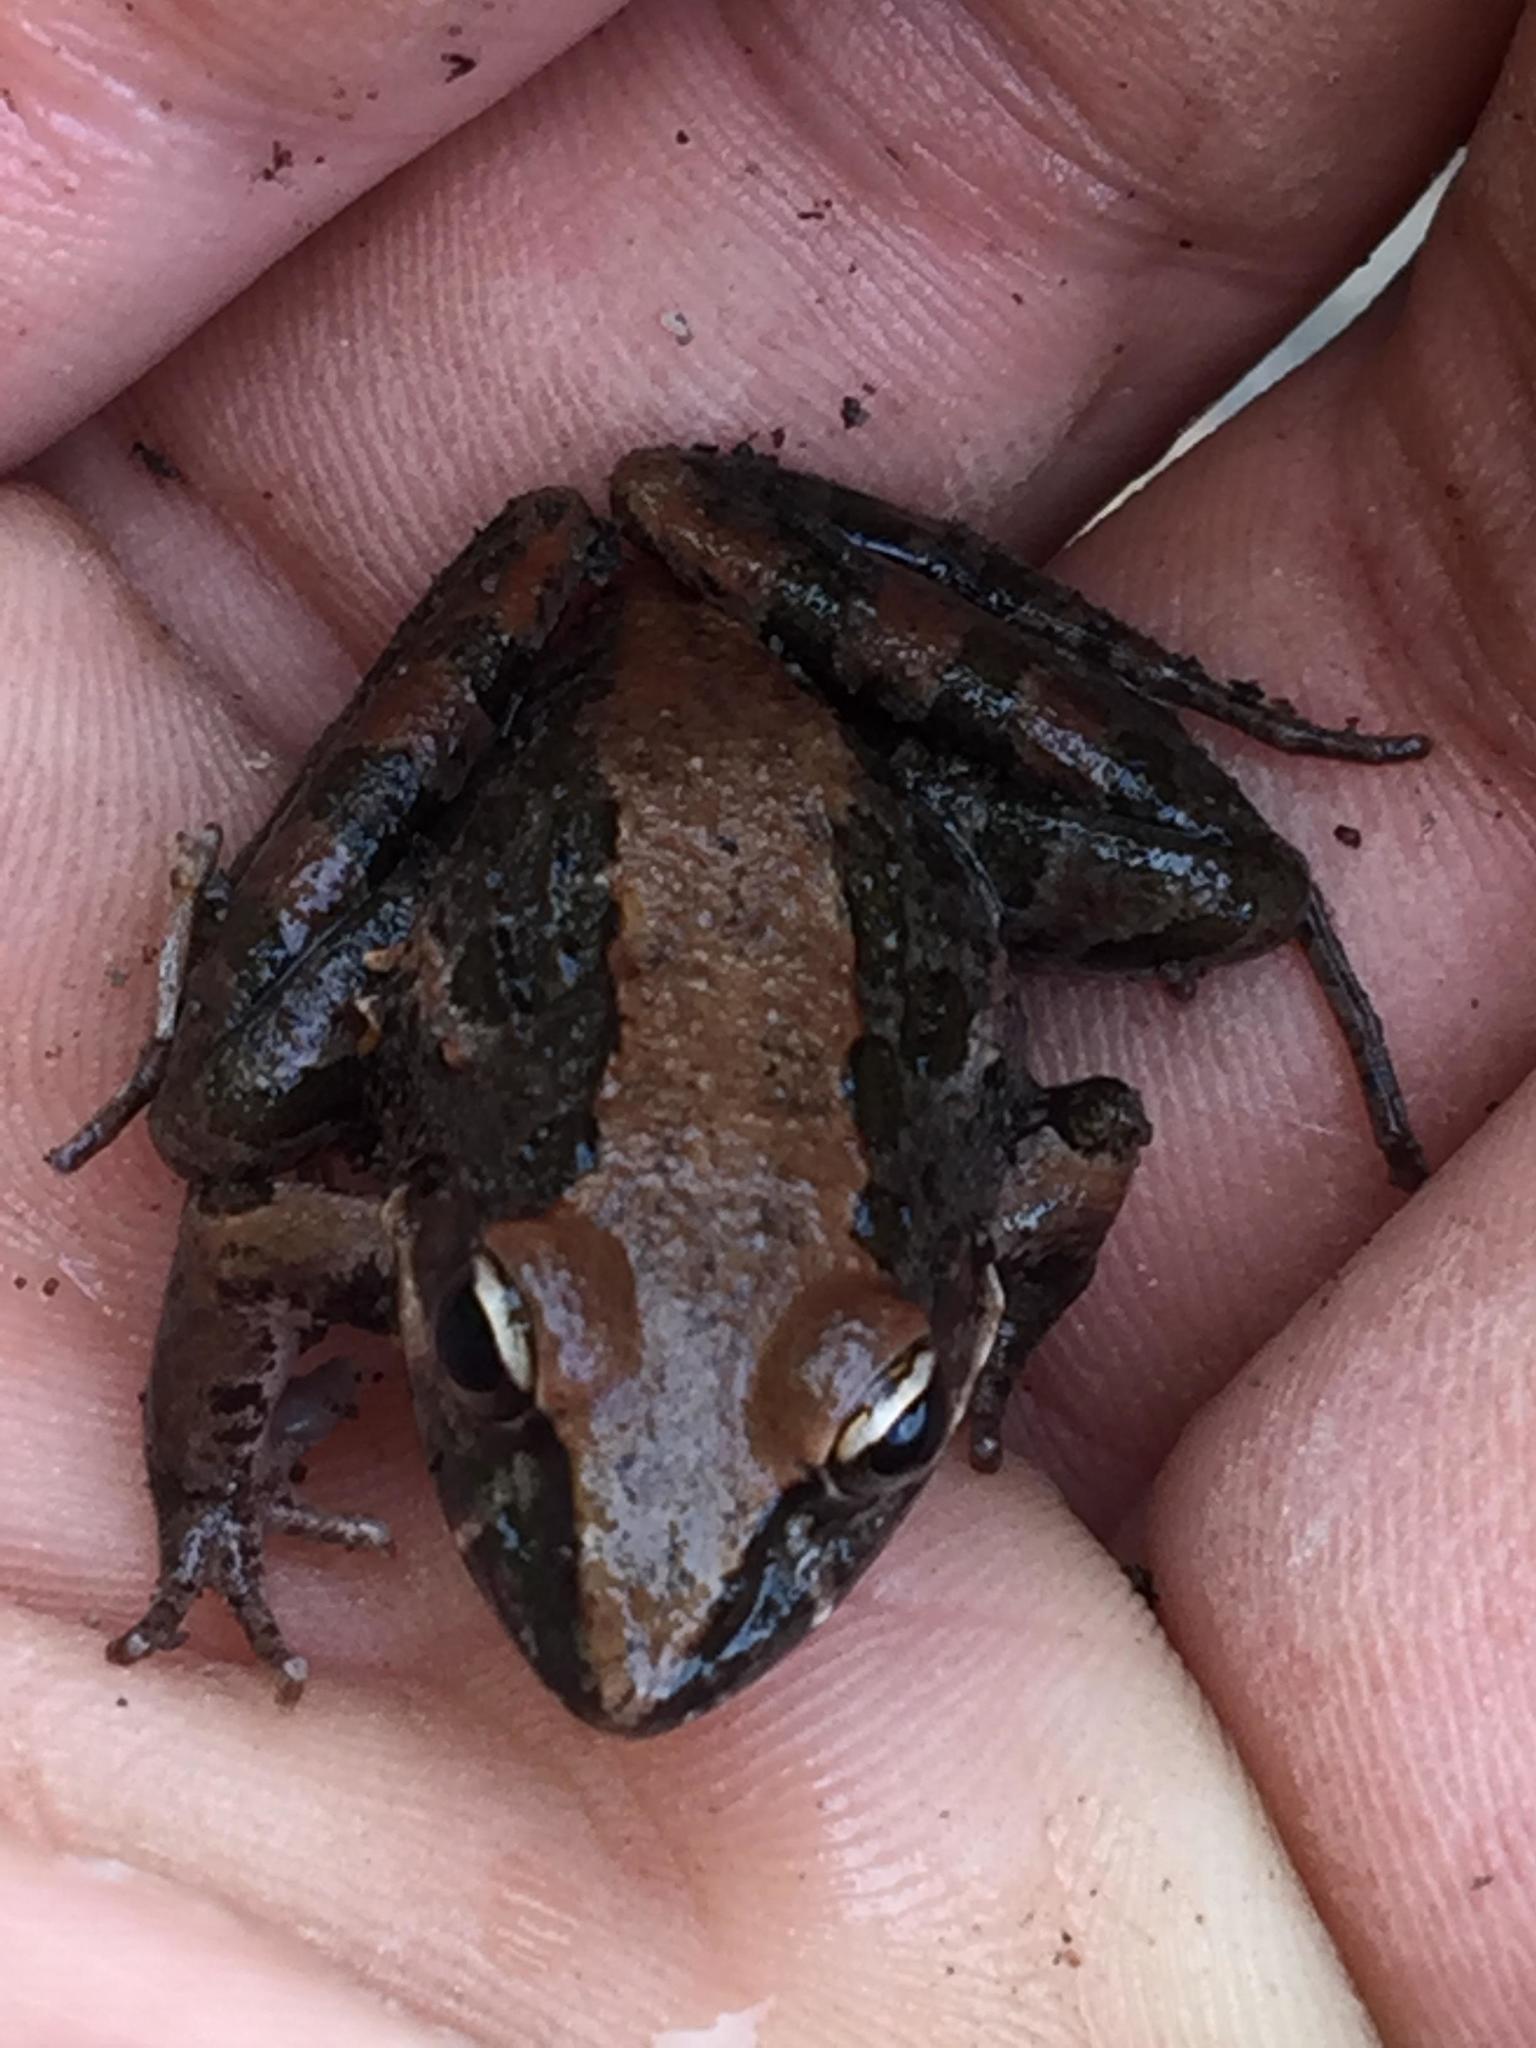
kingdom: Animalia
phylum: Chordata
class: Amphibia
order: Anura
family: Pyxicephalidae
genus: Strongylopus
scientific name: Strongylopus grayii
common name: Gray's stream frog
